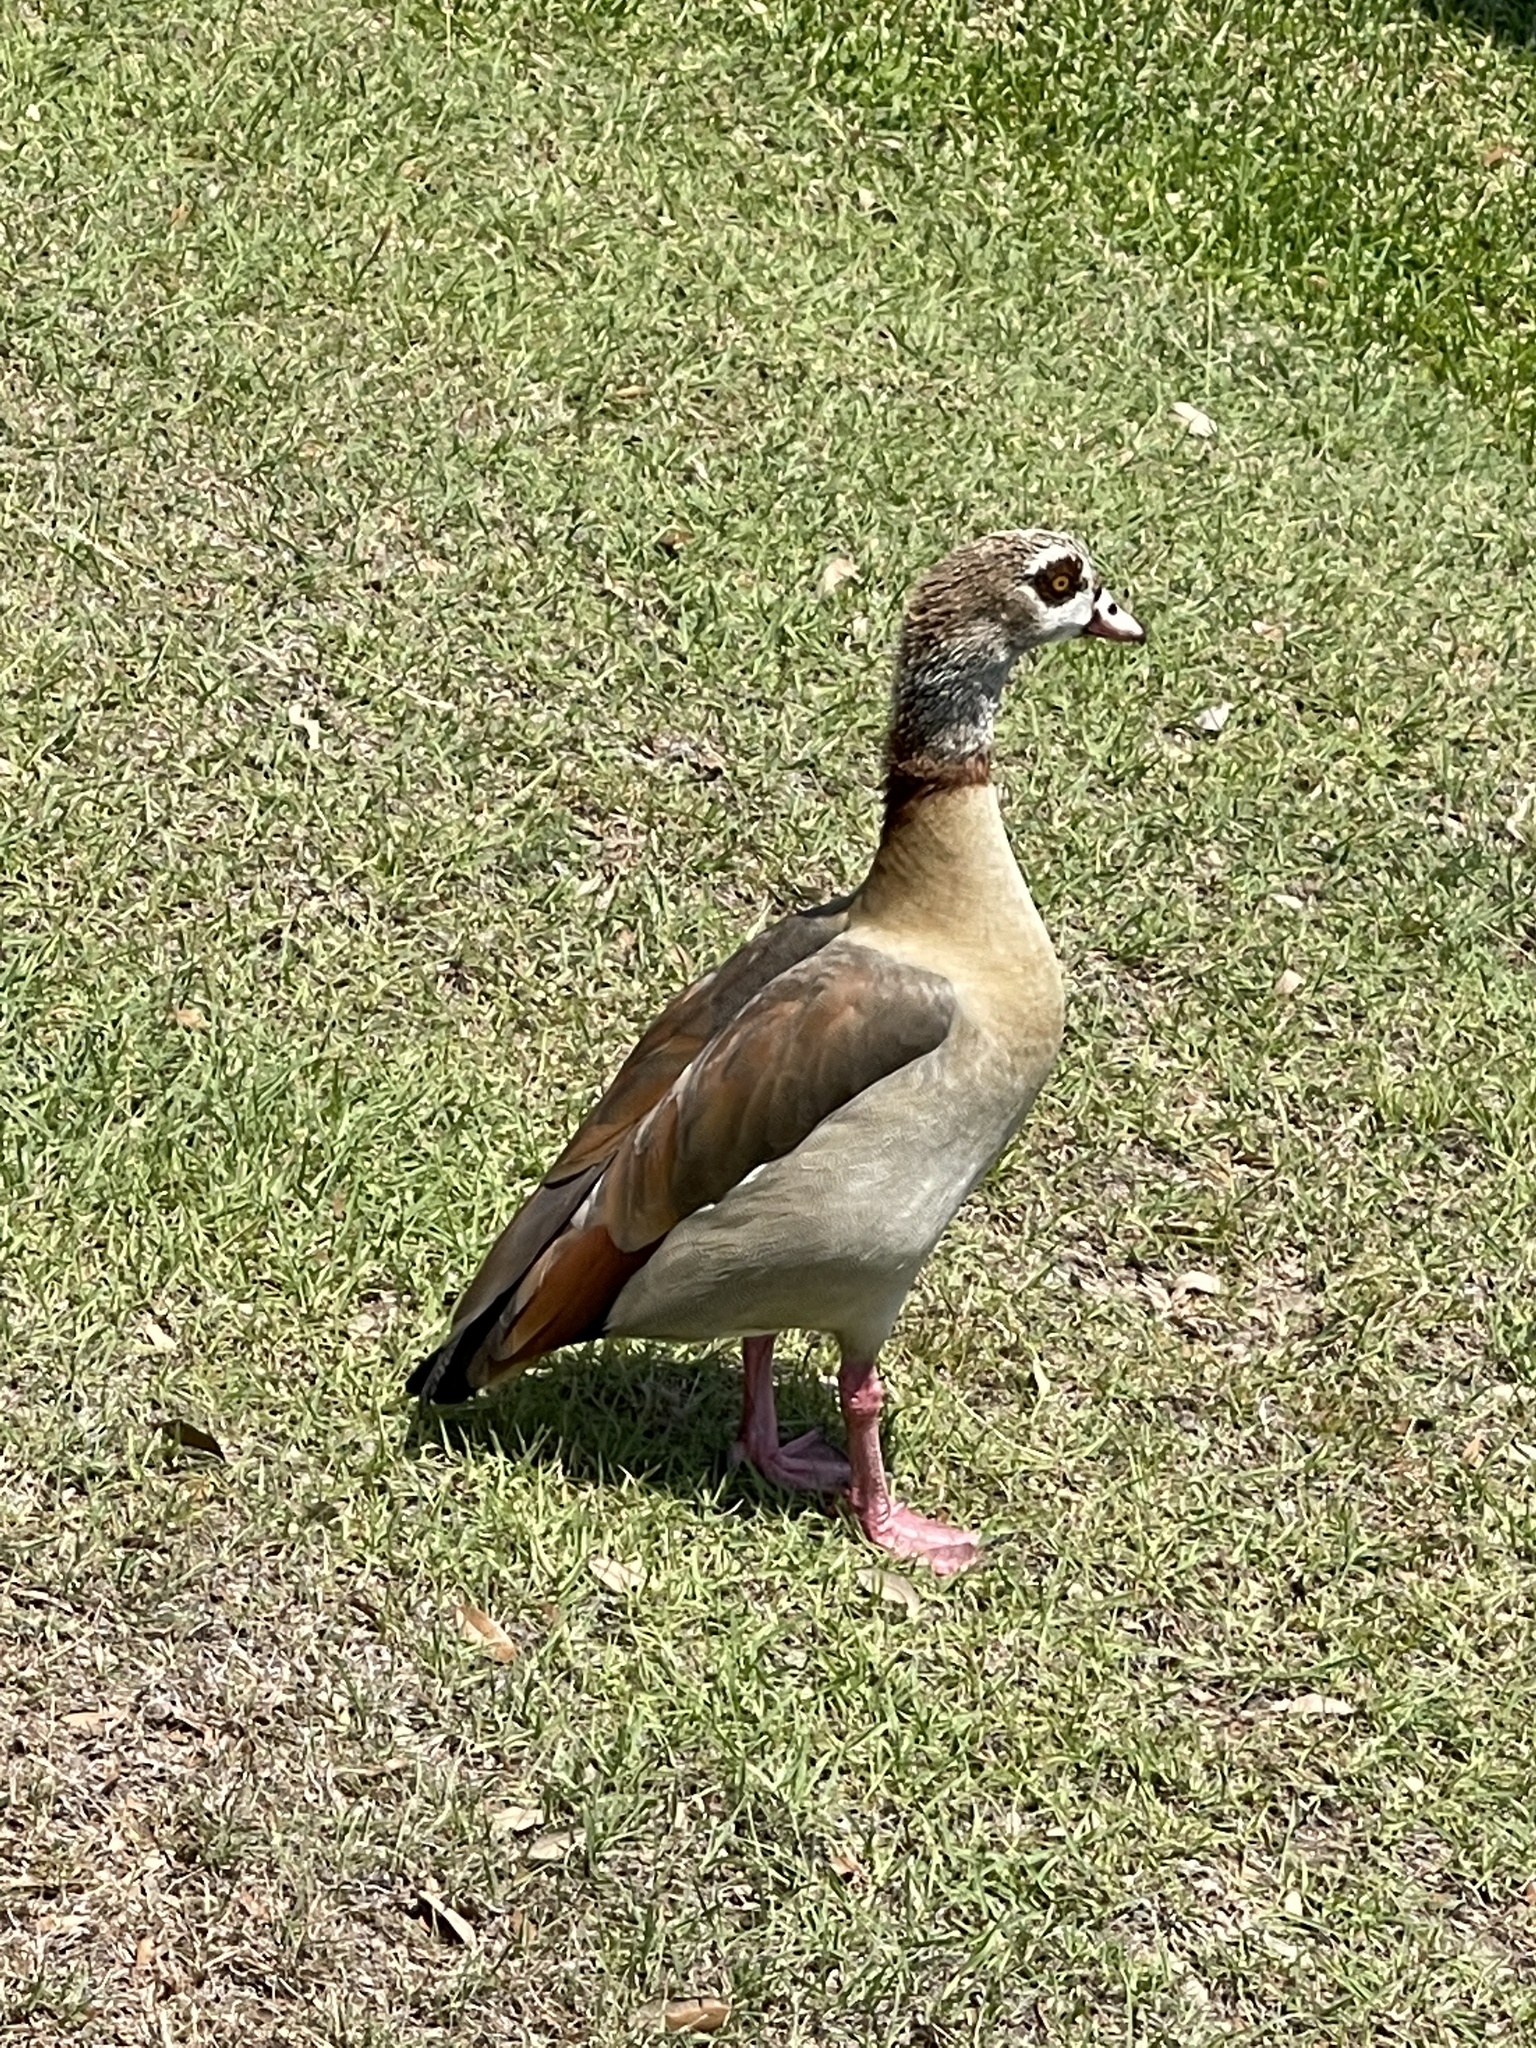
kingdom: Animalia
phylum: Chordata
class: Aves
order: Anseriformes
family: Anatidae
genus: Alopochen
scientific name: Alopochen aegyptiaca
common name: Egyptian goose
